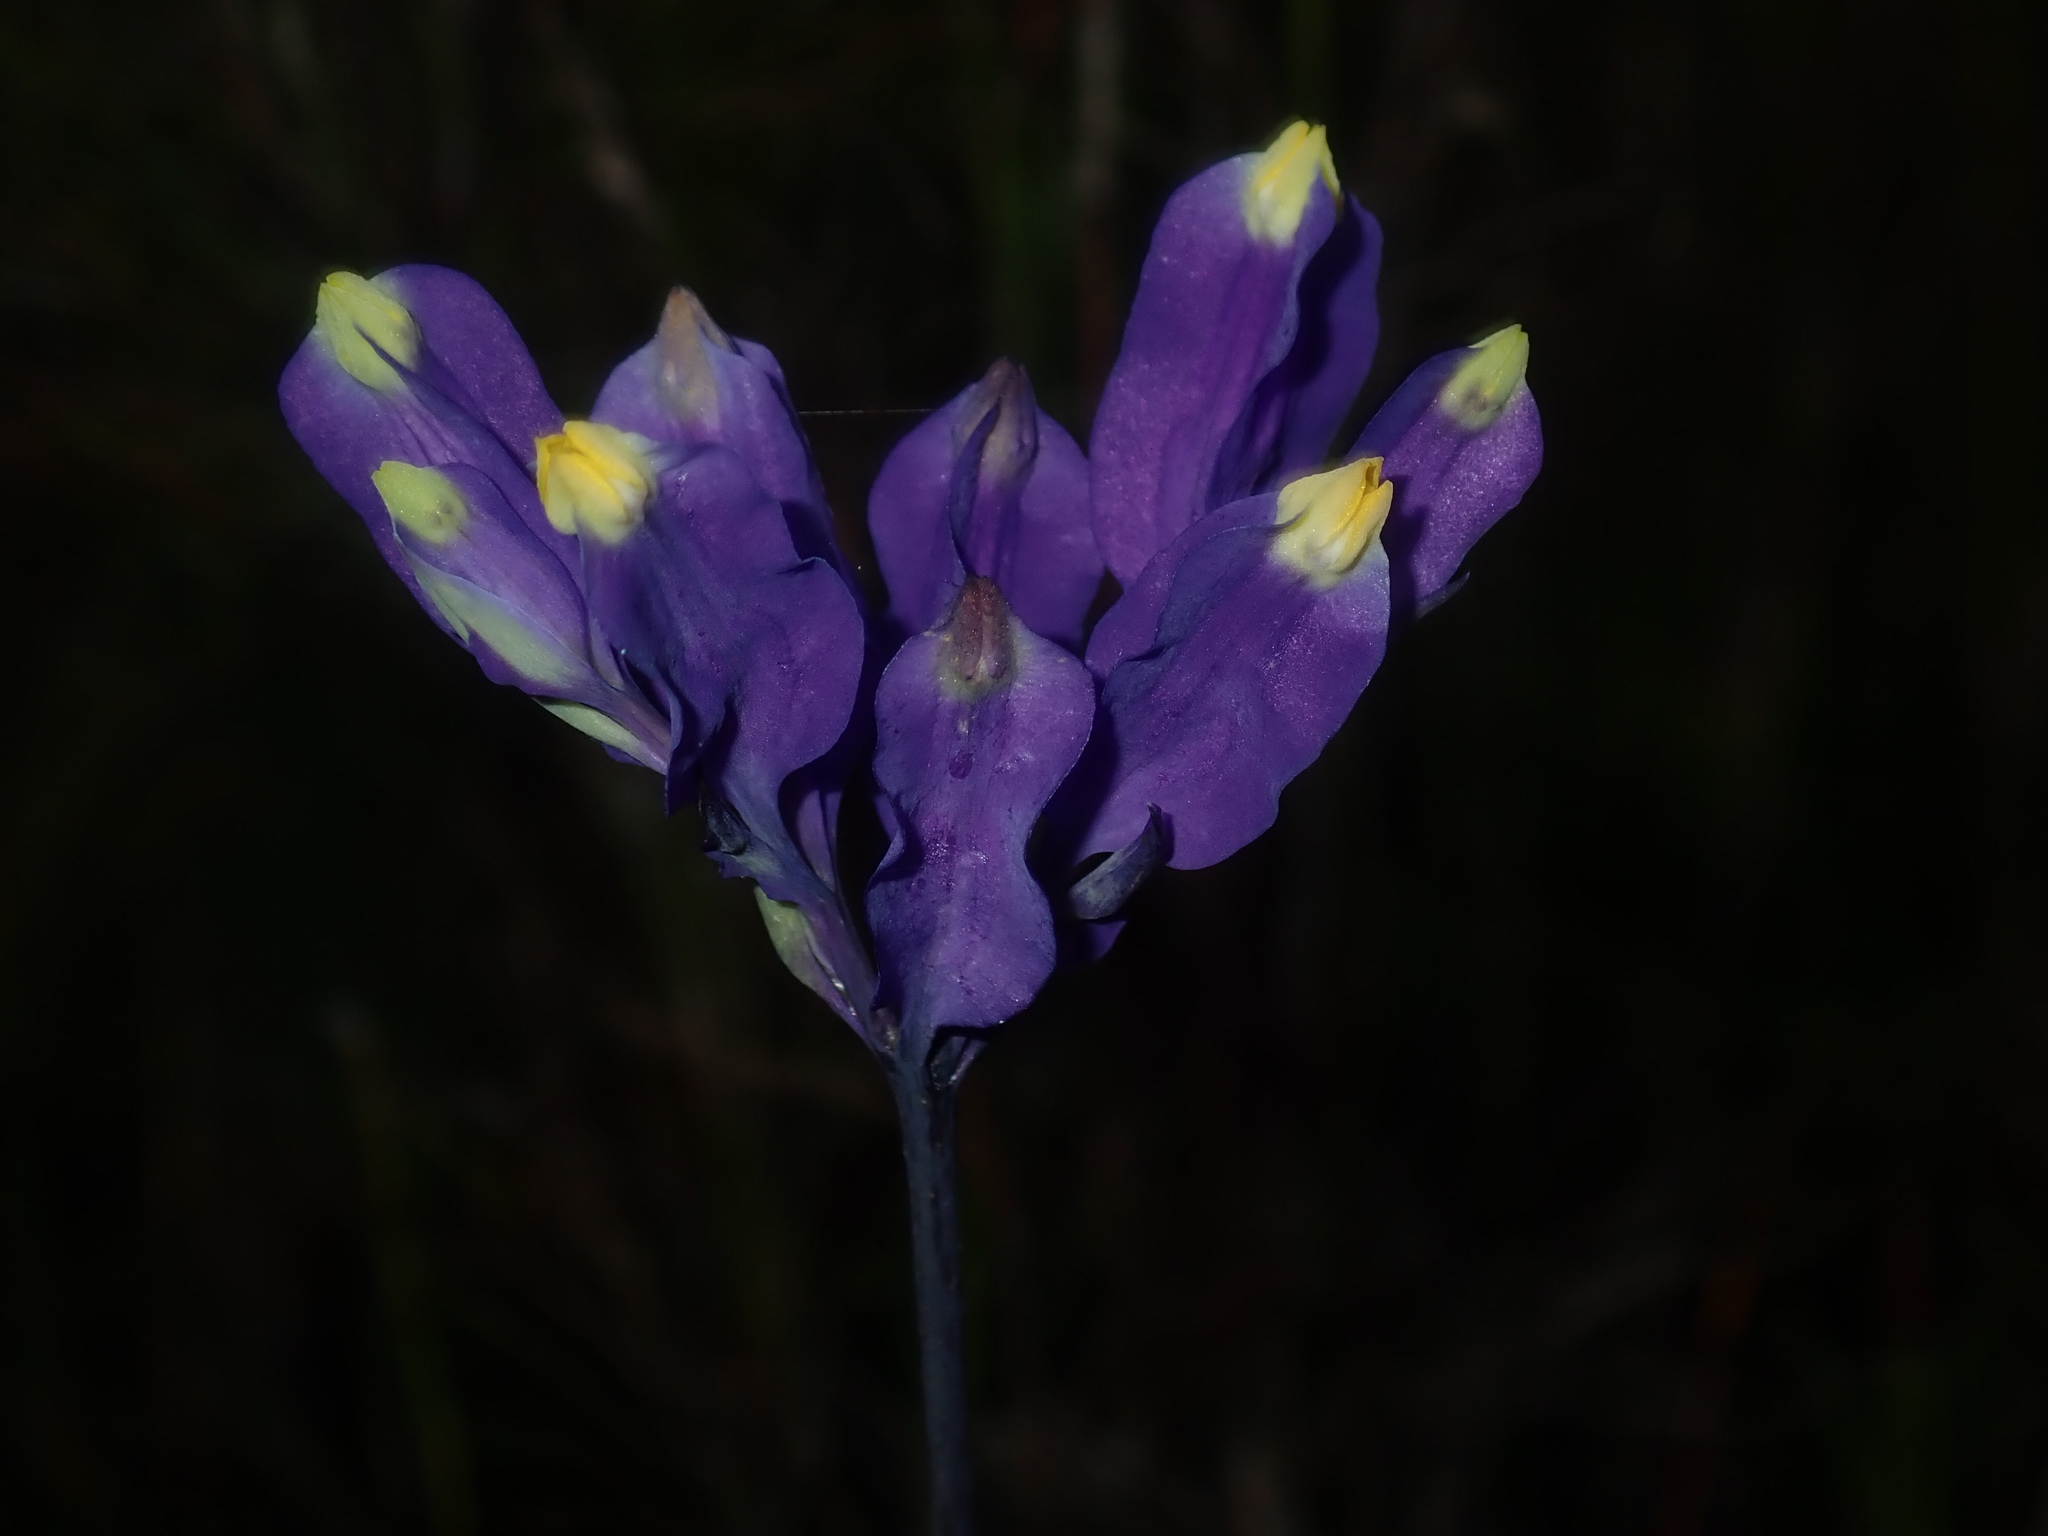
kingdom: Plantae
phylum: Tracheophyta
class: Liliopsida
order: Dioscoreales
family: Burmanniaceae
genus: Burmannia
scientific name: Burmannia disticha
